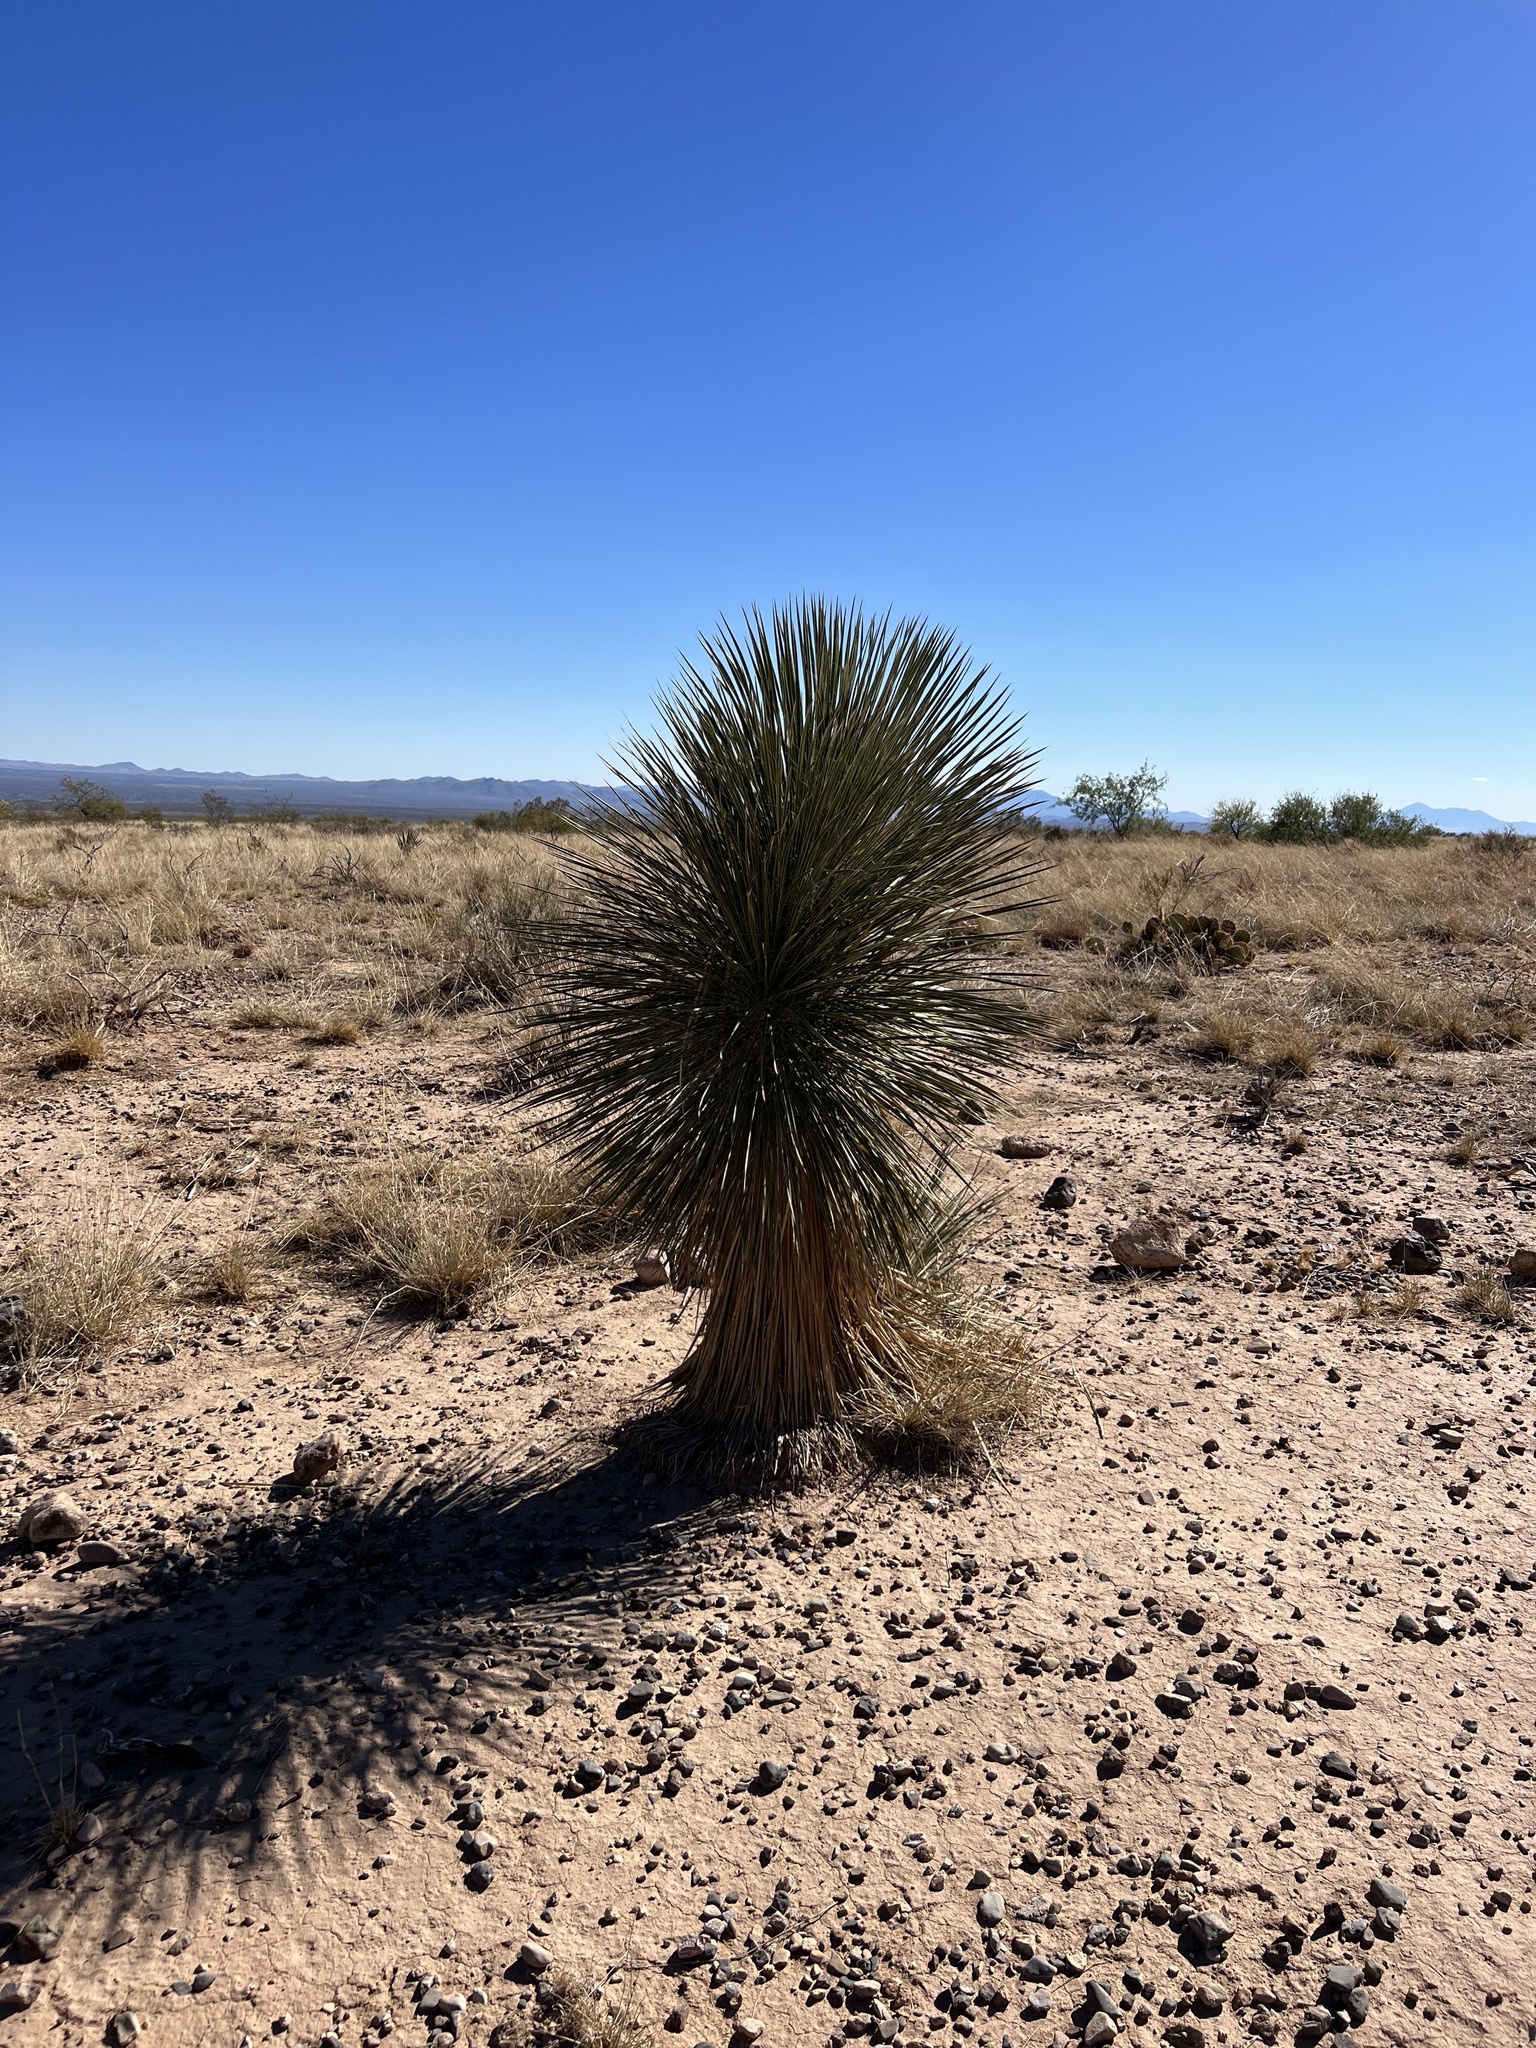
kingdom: Plantae
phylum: Tracheophyta
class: Liliopsida
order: Asparagales
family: Asparagaceae
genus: Yucca
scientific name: Yucca elata
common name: Palmella
